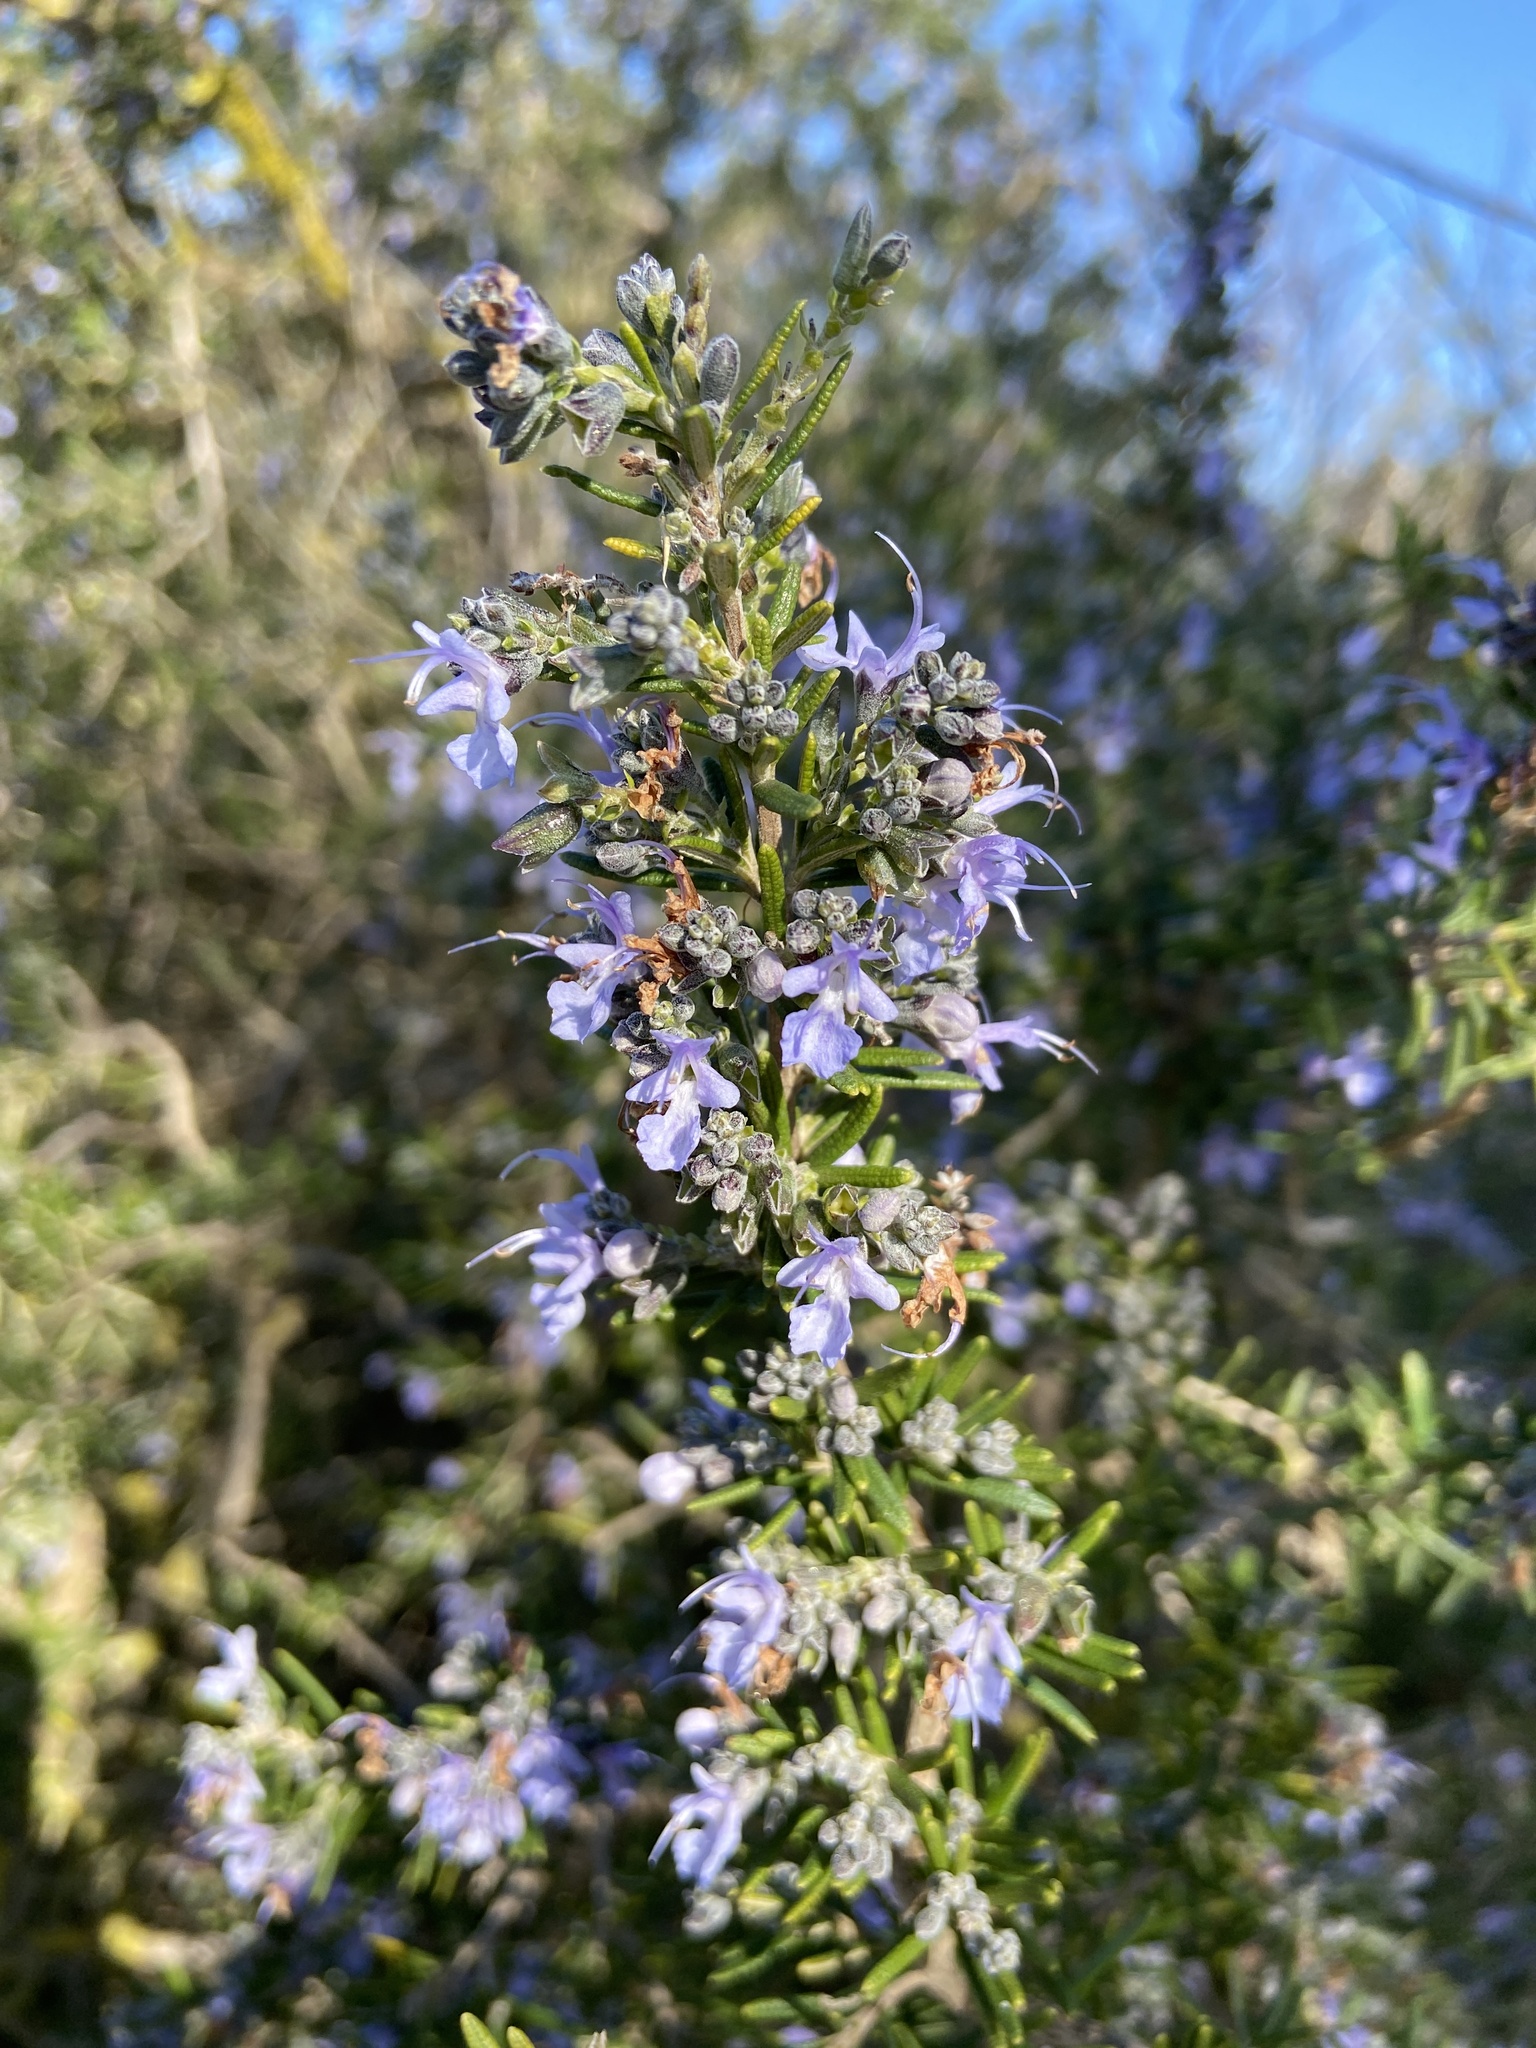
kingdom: Plantae
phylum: Tracheophyta
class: Magnoliopsida
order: Lamiales
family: Lamiaceae
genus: Salvia
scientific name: Salvia rosmarinus
